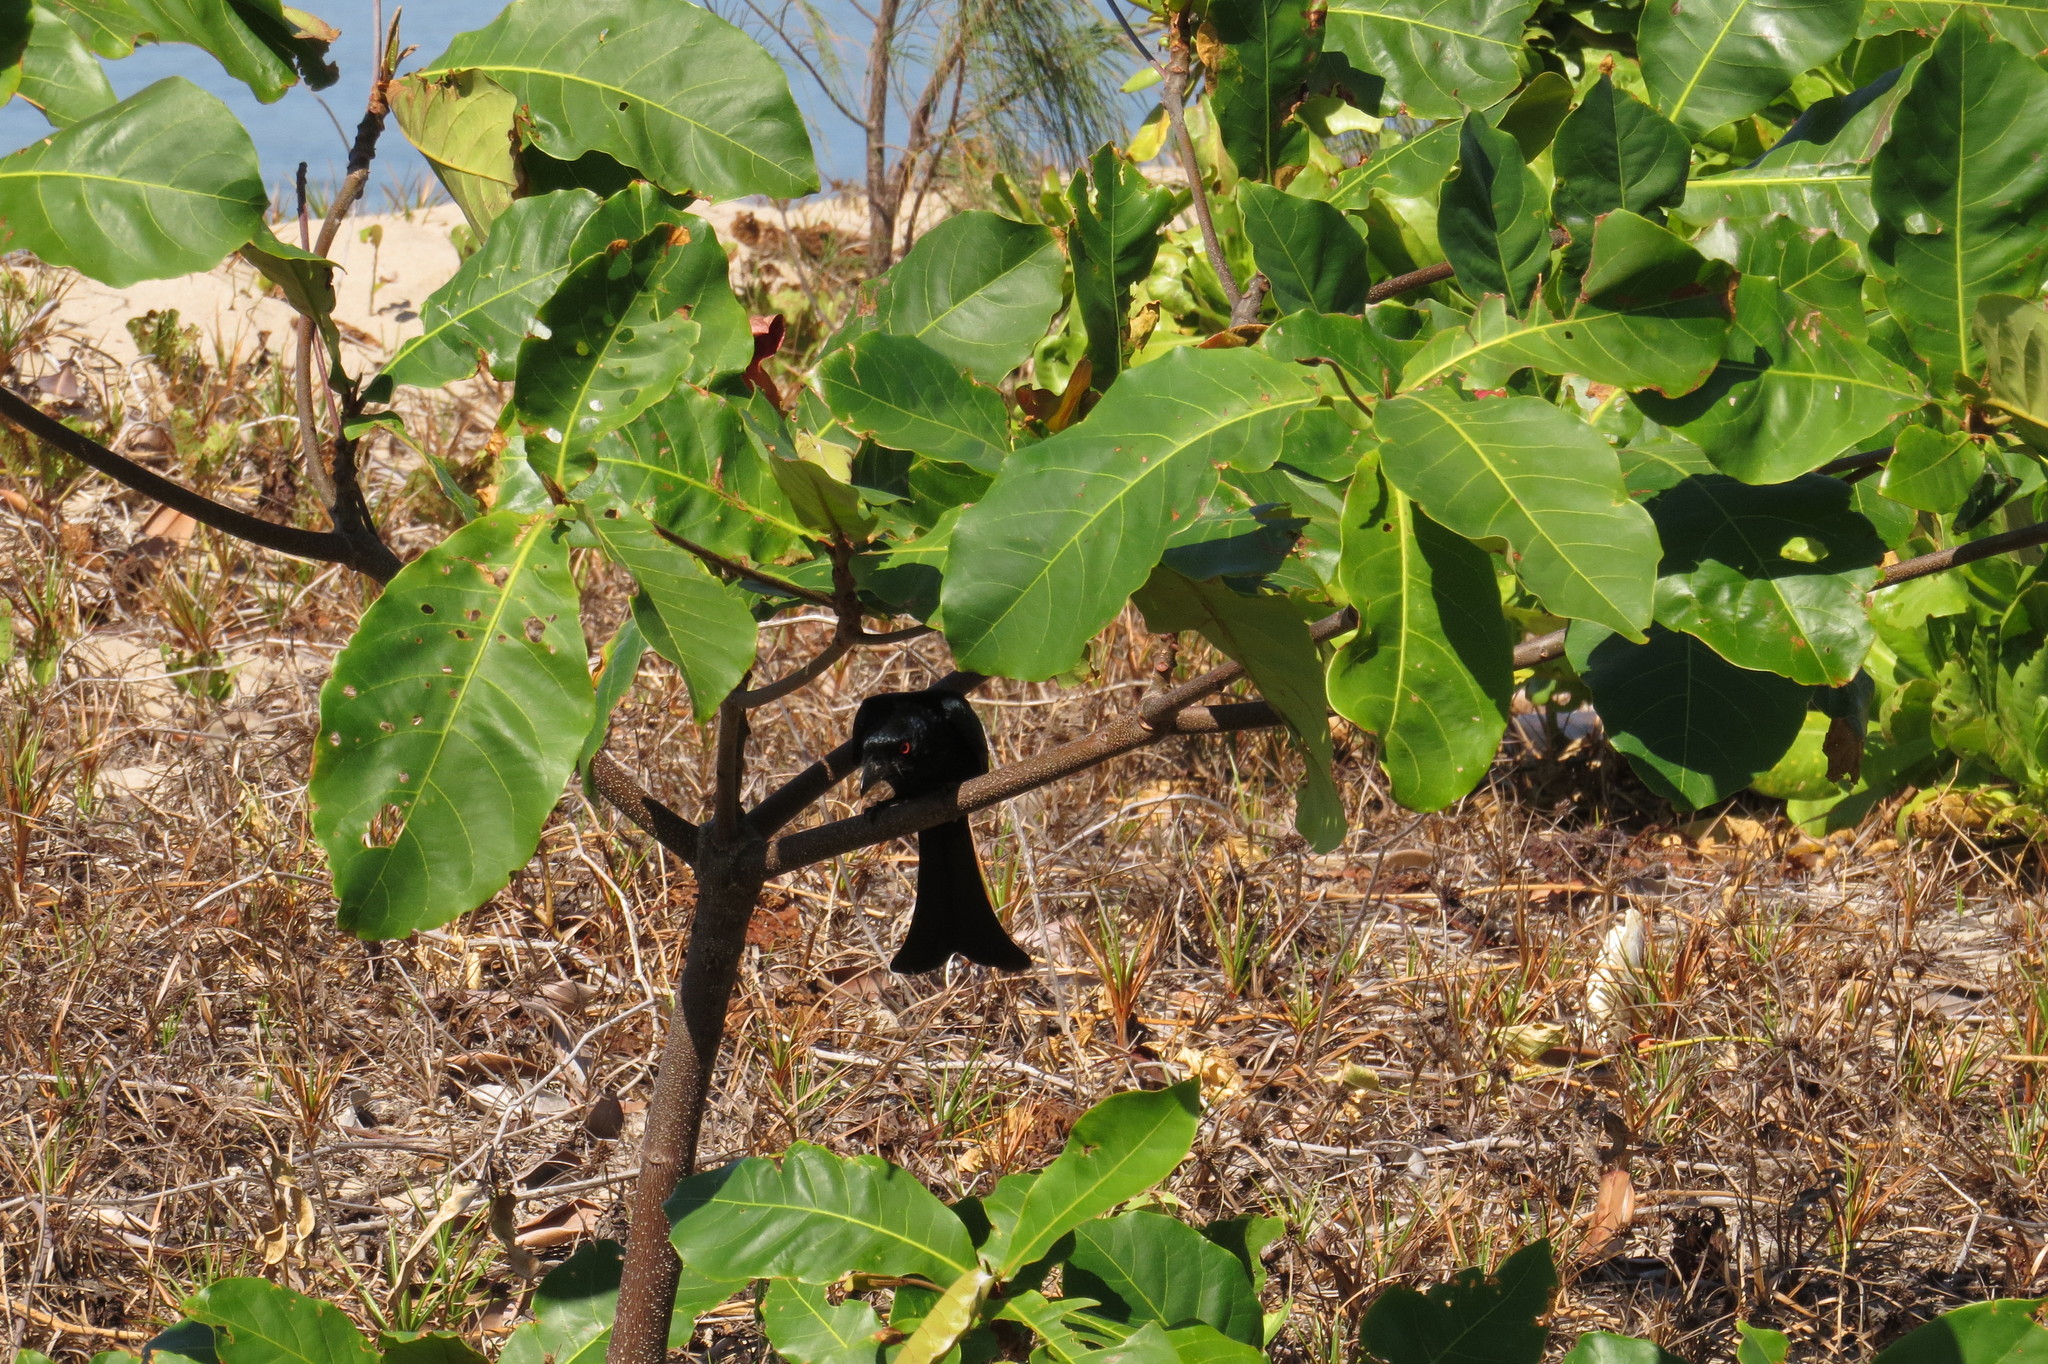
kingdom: Animalia
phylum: Chordata
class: Aves
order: Passeriformes
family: Dicruridae
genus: Dicrurus
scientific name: Dicrurus bracteatus
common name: Spangled drongo
